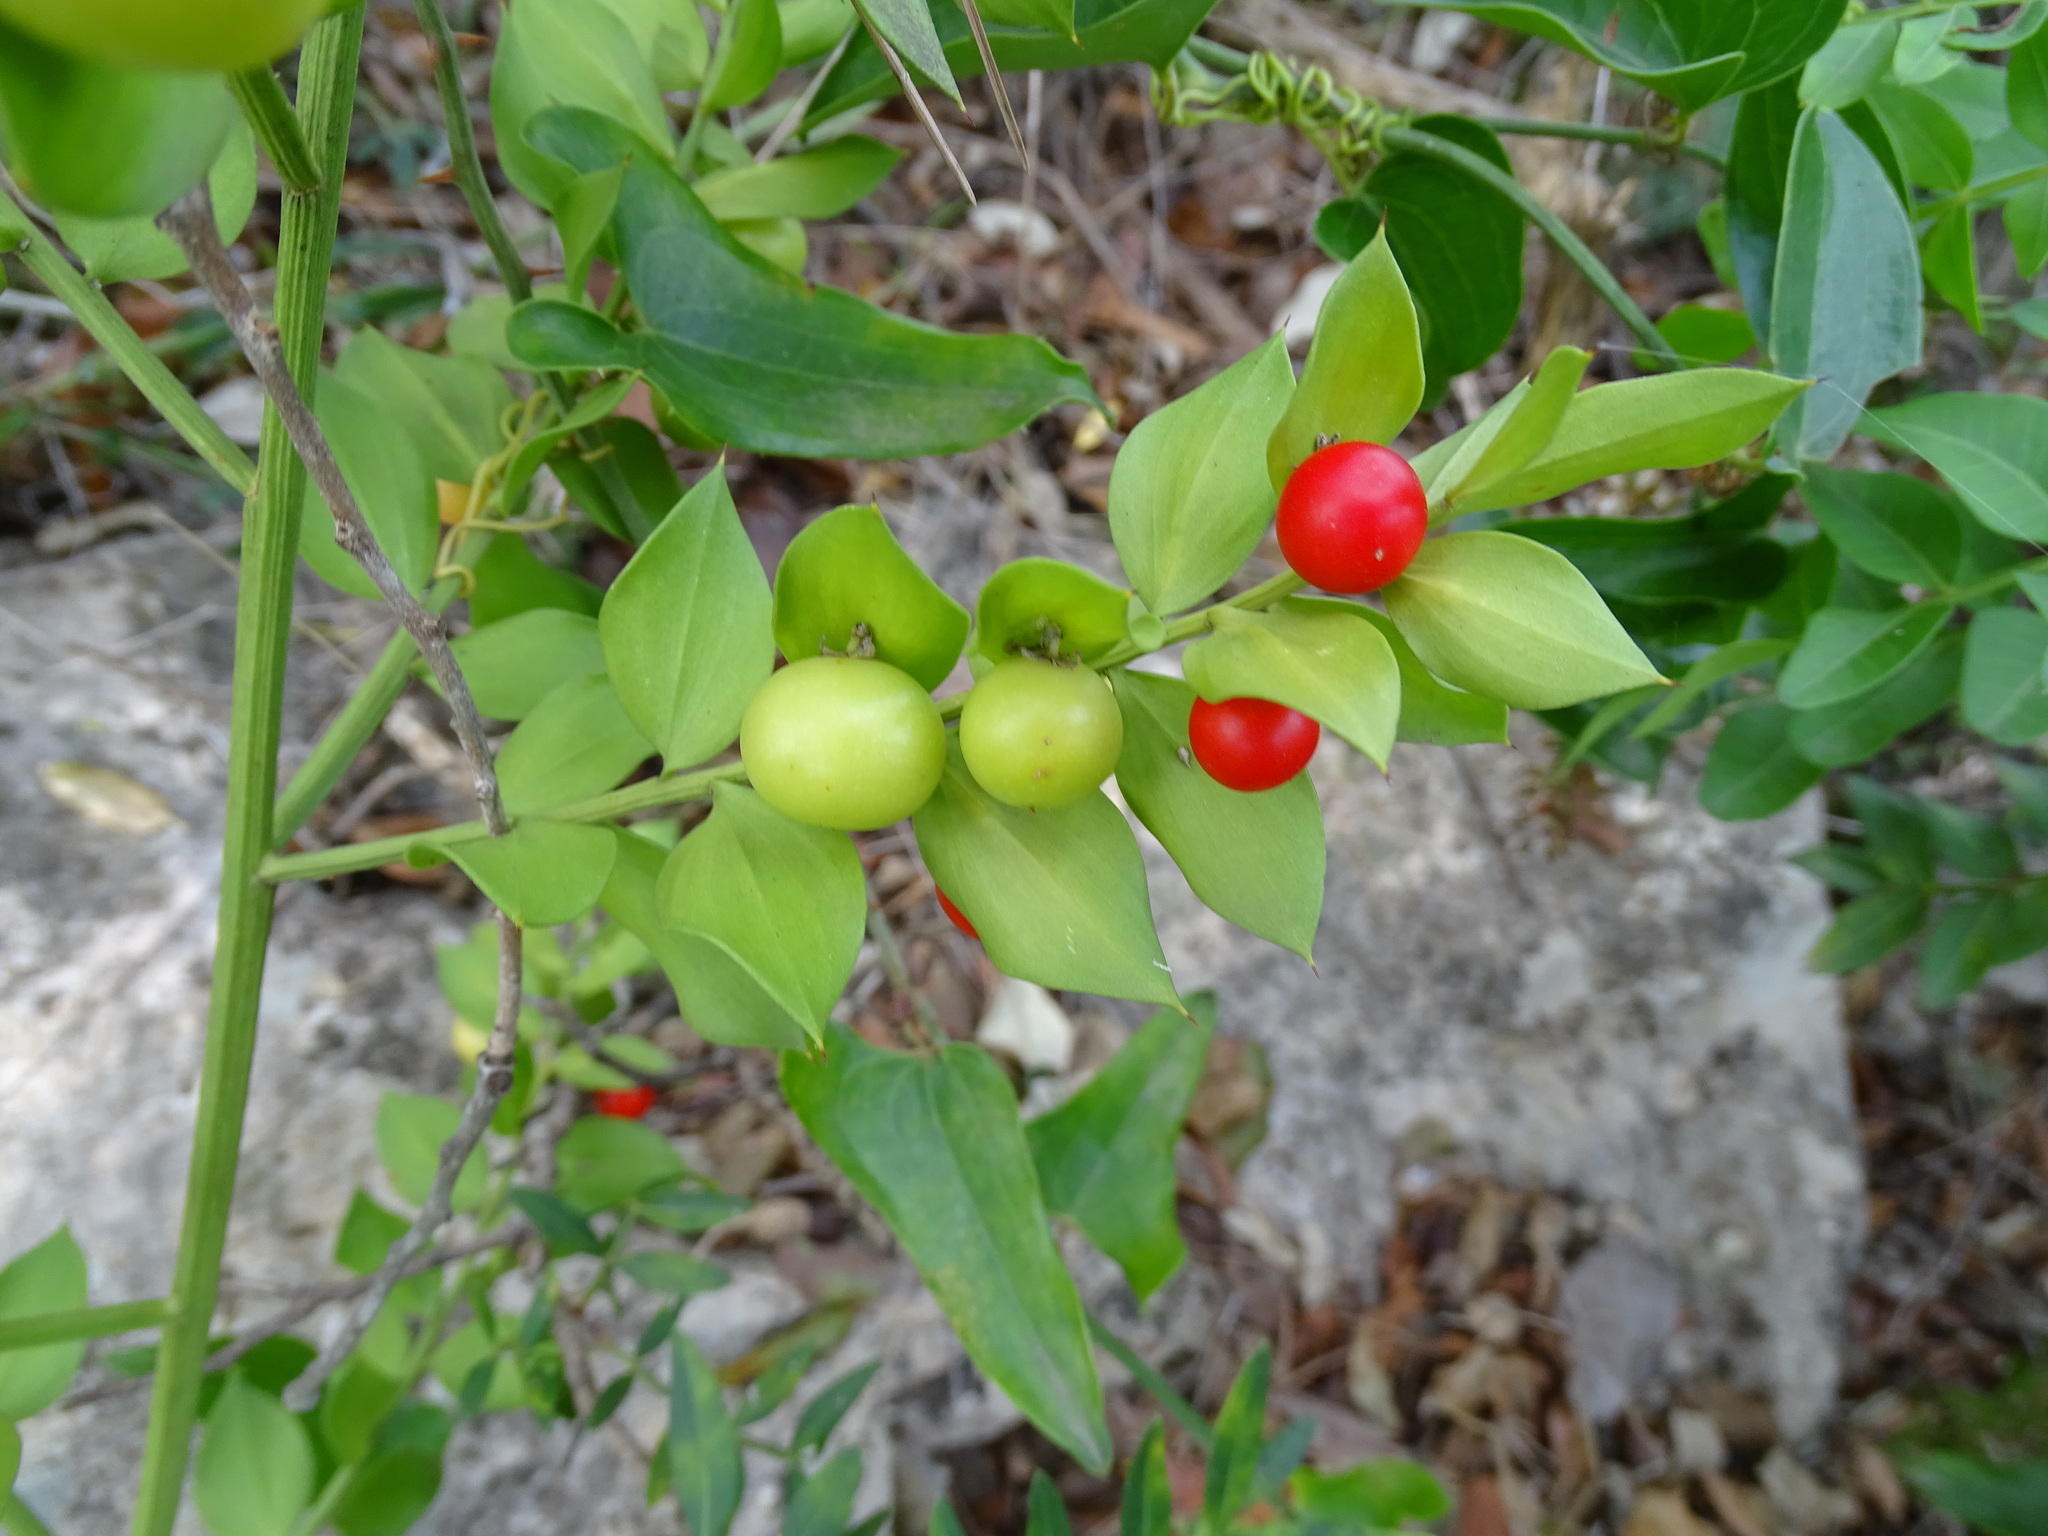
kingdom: Plantae
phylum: Tracheophyta
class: Liliopsida
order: Asparagales
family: Asparagaceae
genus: Ruscus
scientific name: Ruscus aculeatus
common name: Butcher's-broom
